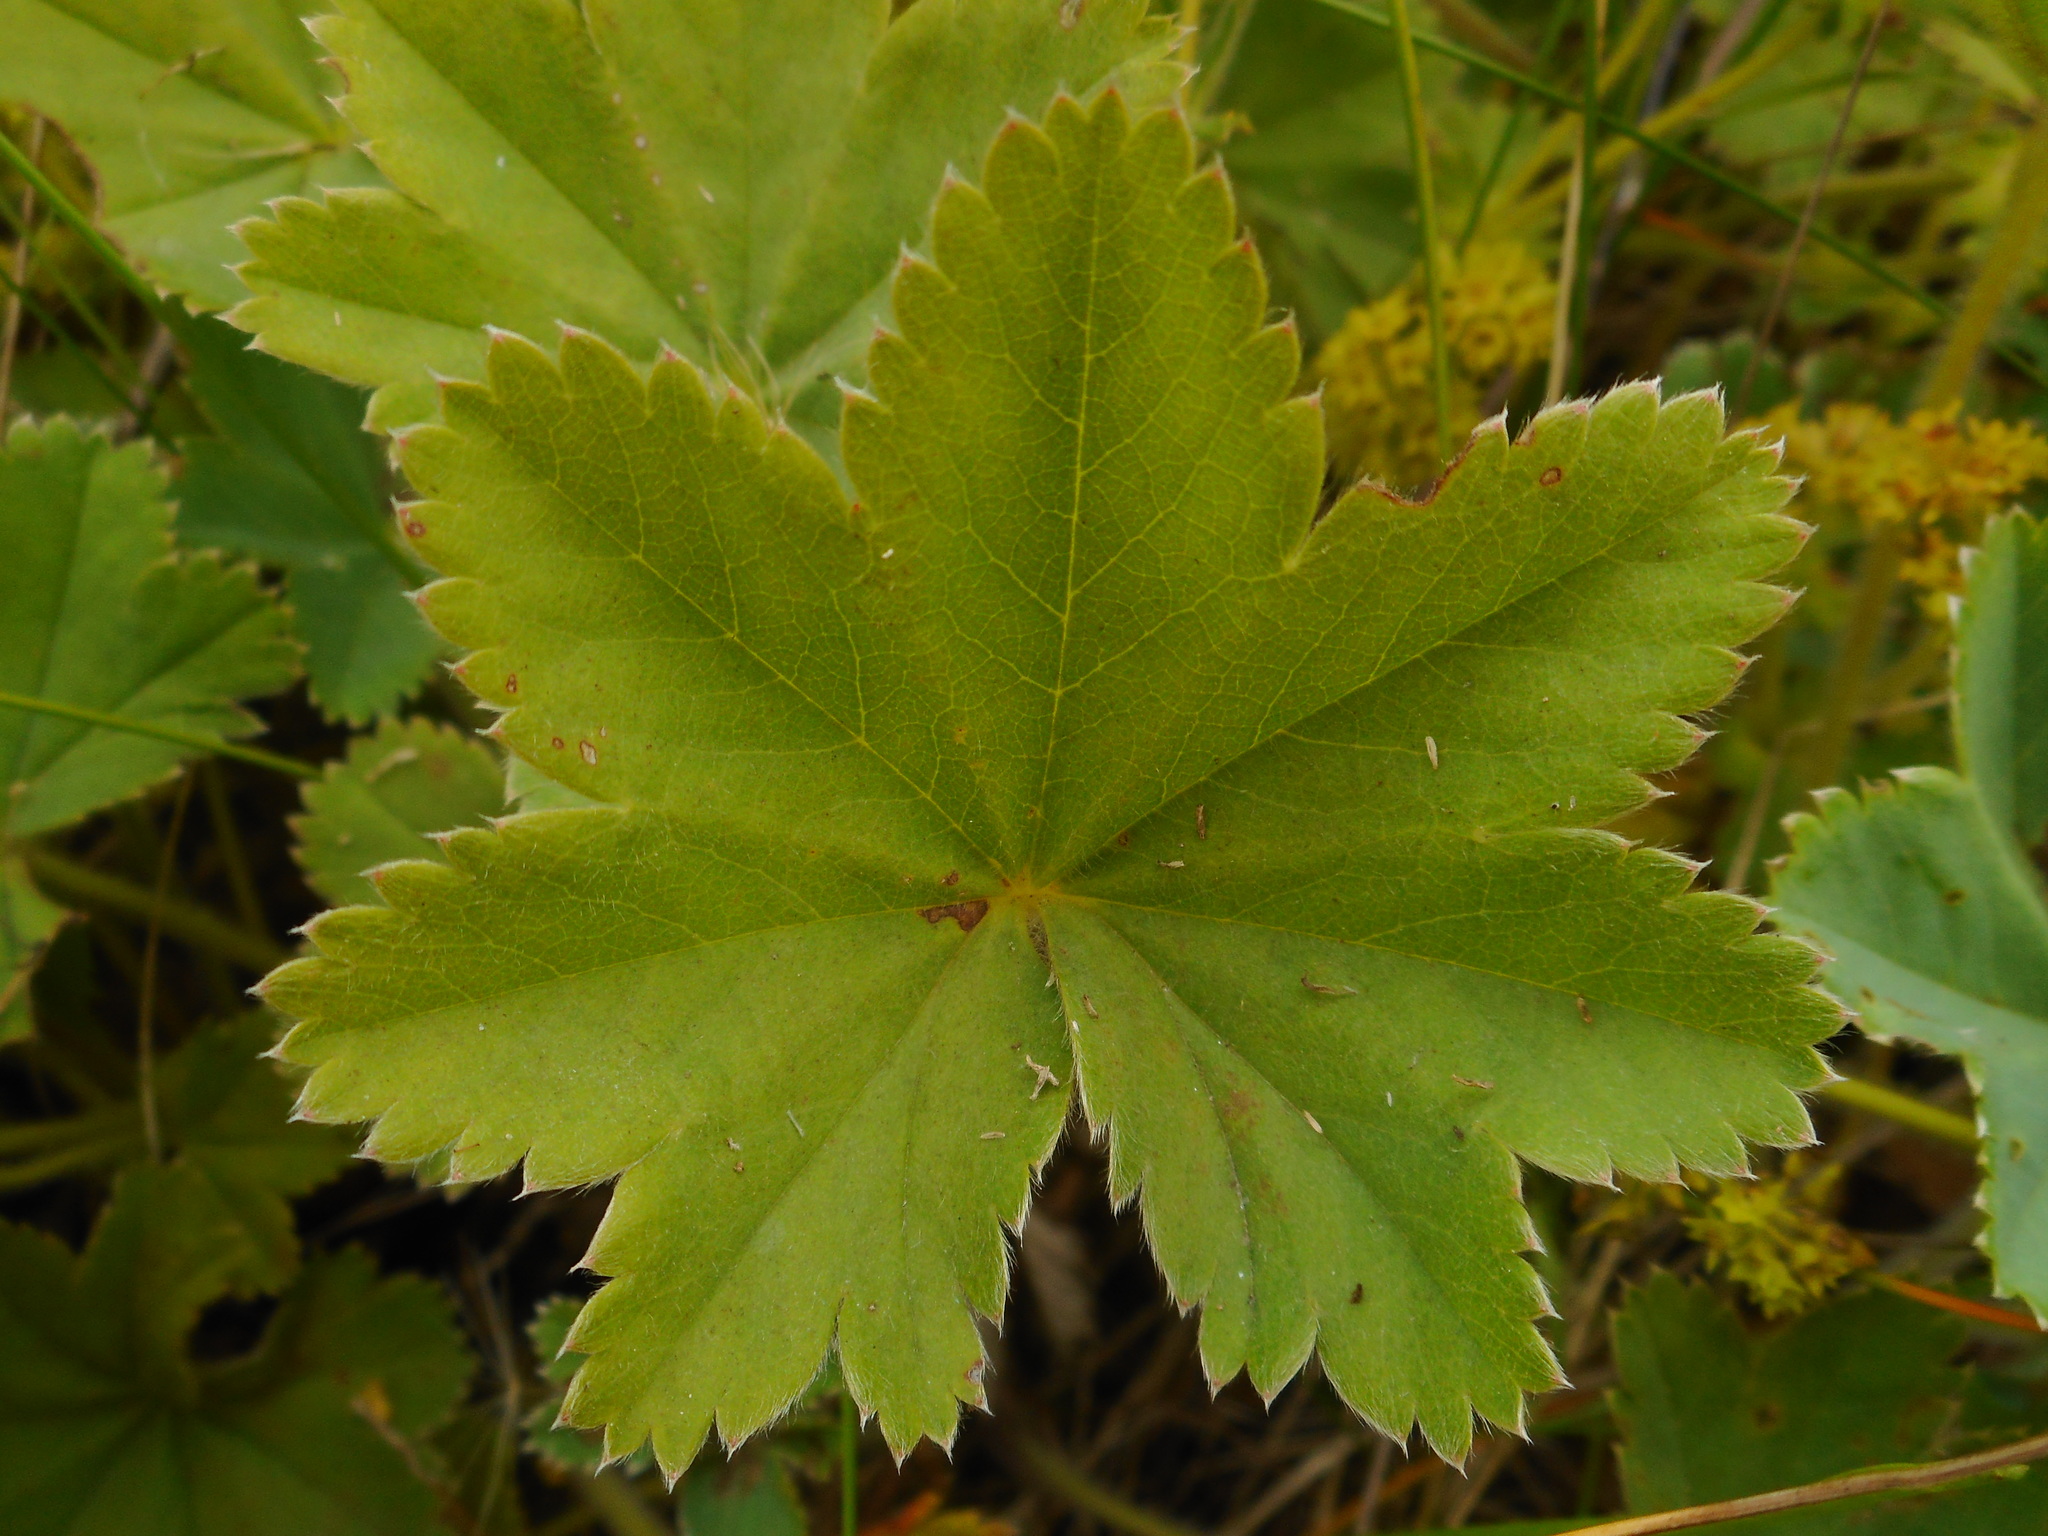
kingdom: Plantae
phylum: Tracheophyta
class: Magnoliopsida
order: Rosales
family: Rosaceae
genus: Alchemilla
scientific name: Alchemilla hirsuticaulis
